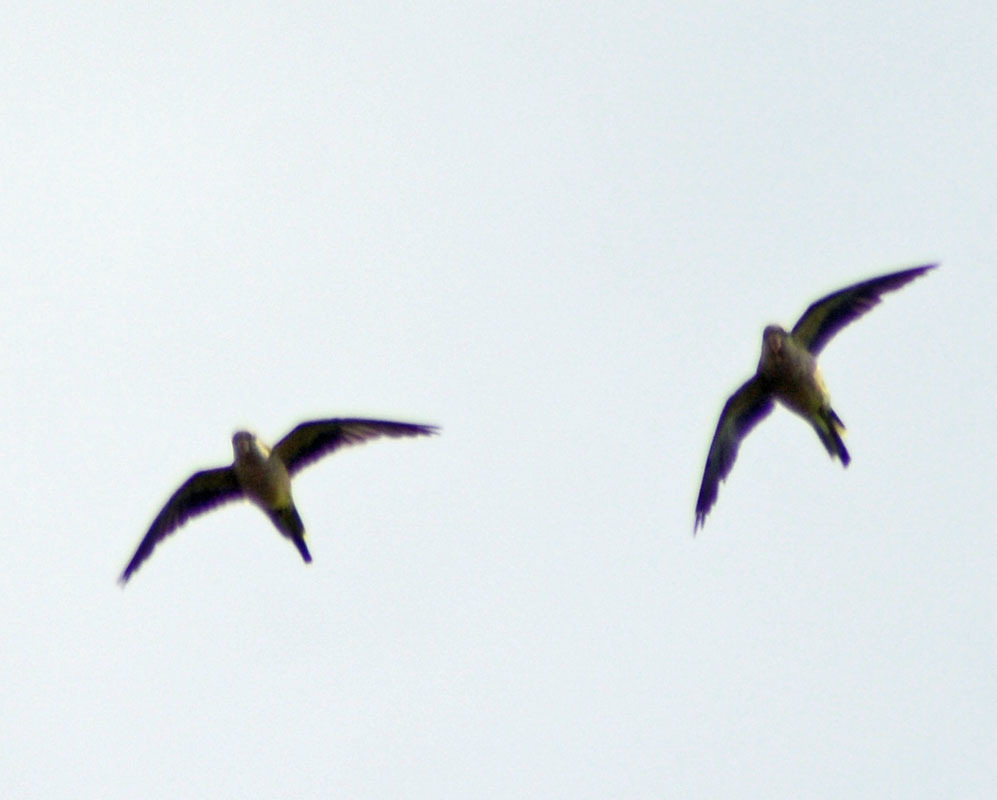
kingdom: Animalia
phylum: Chordata
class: Aves
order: Psittaciformes
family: Psittacidae
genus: Myiopsitta
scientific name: Myiopsitta monachus
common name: Monk parakeet
